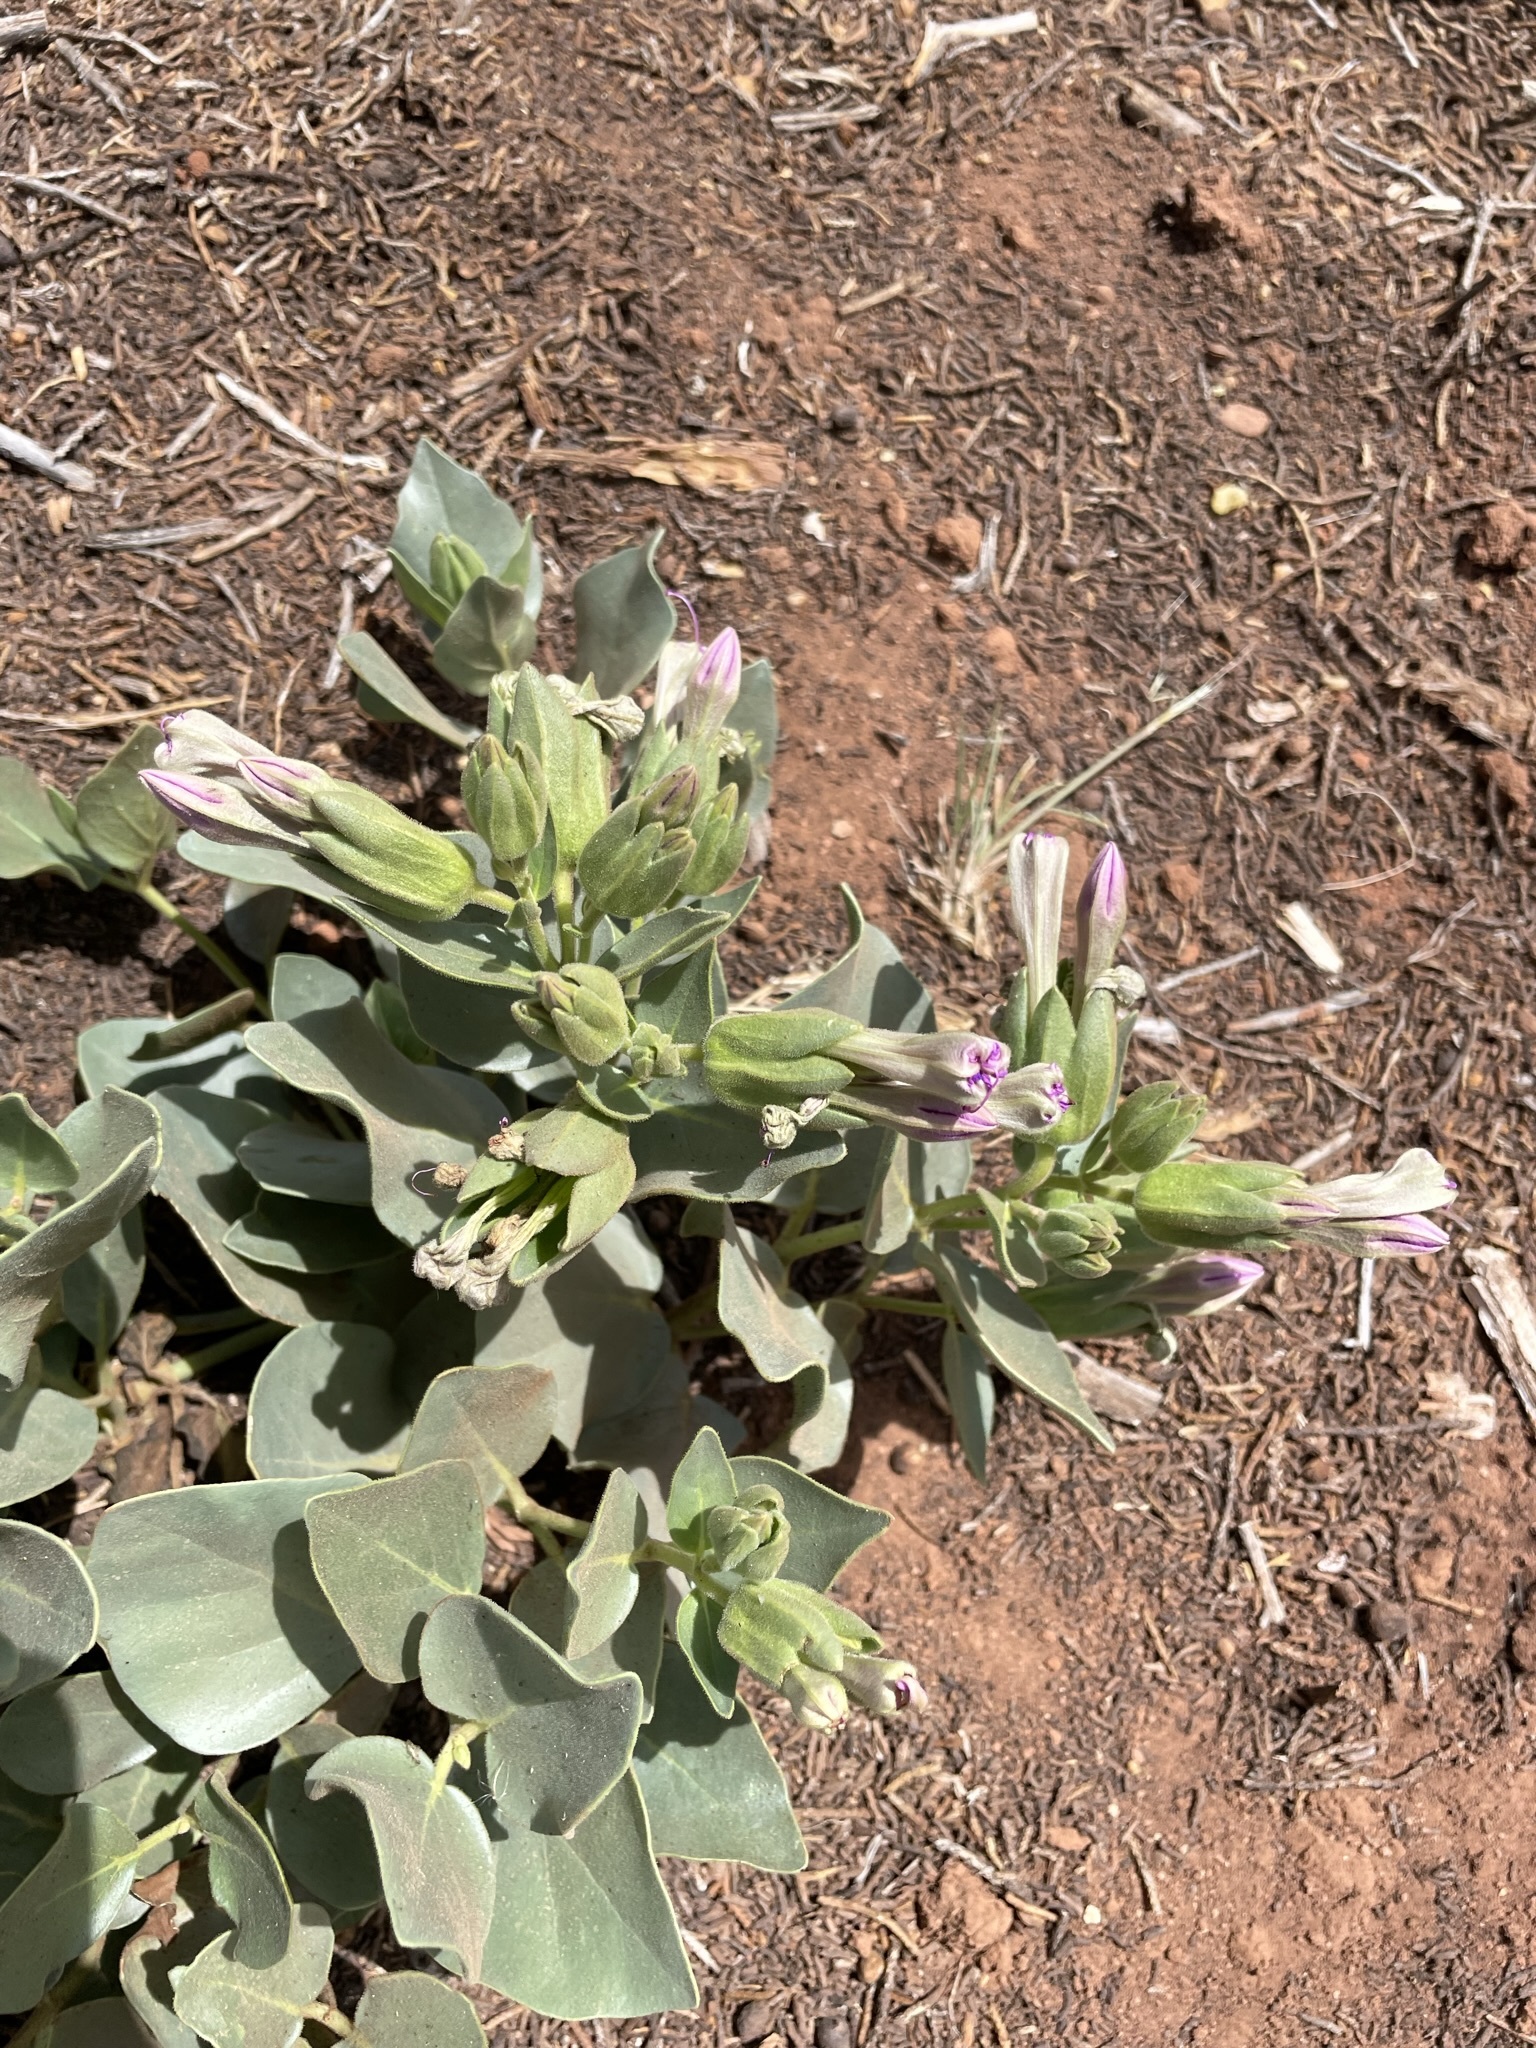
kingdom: Plantae
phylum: Tracheophyta
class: Magnoliopsida
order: Caryophyllales
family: Nyctaginaceae
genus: Mirabilis
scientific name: Mirabilis multiflora
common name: Froebel's four-o'clock
